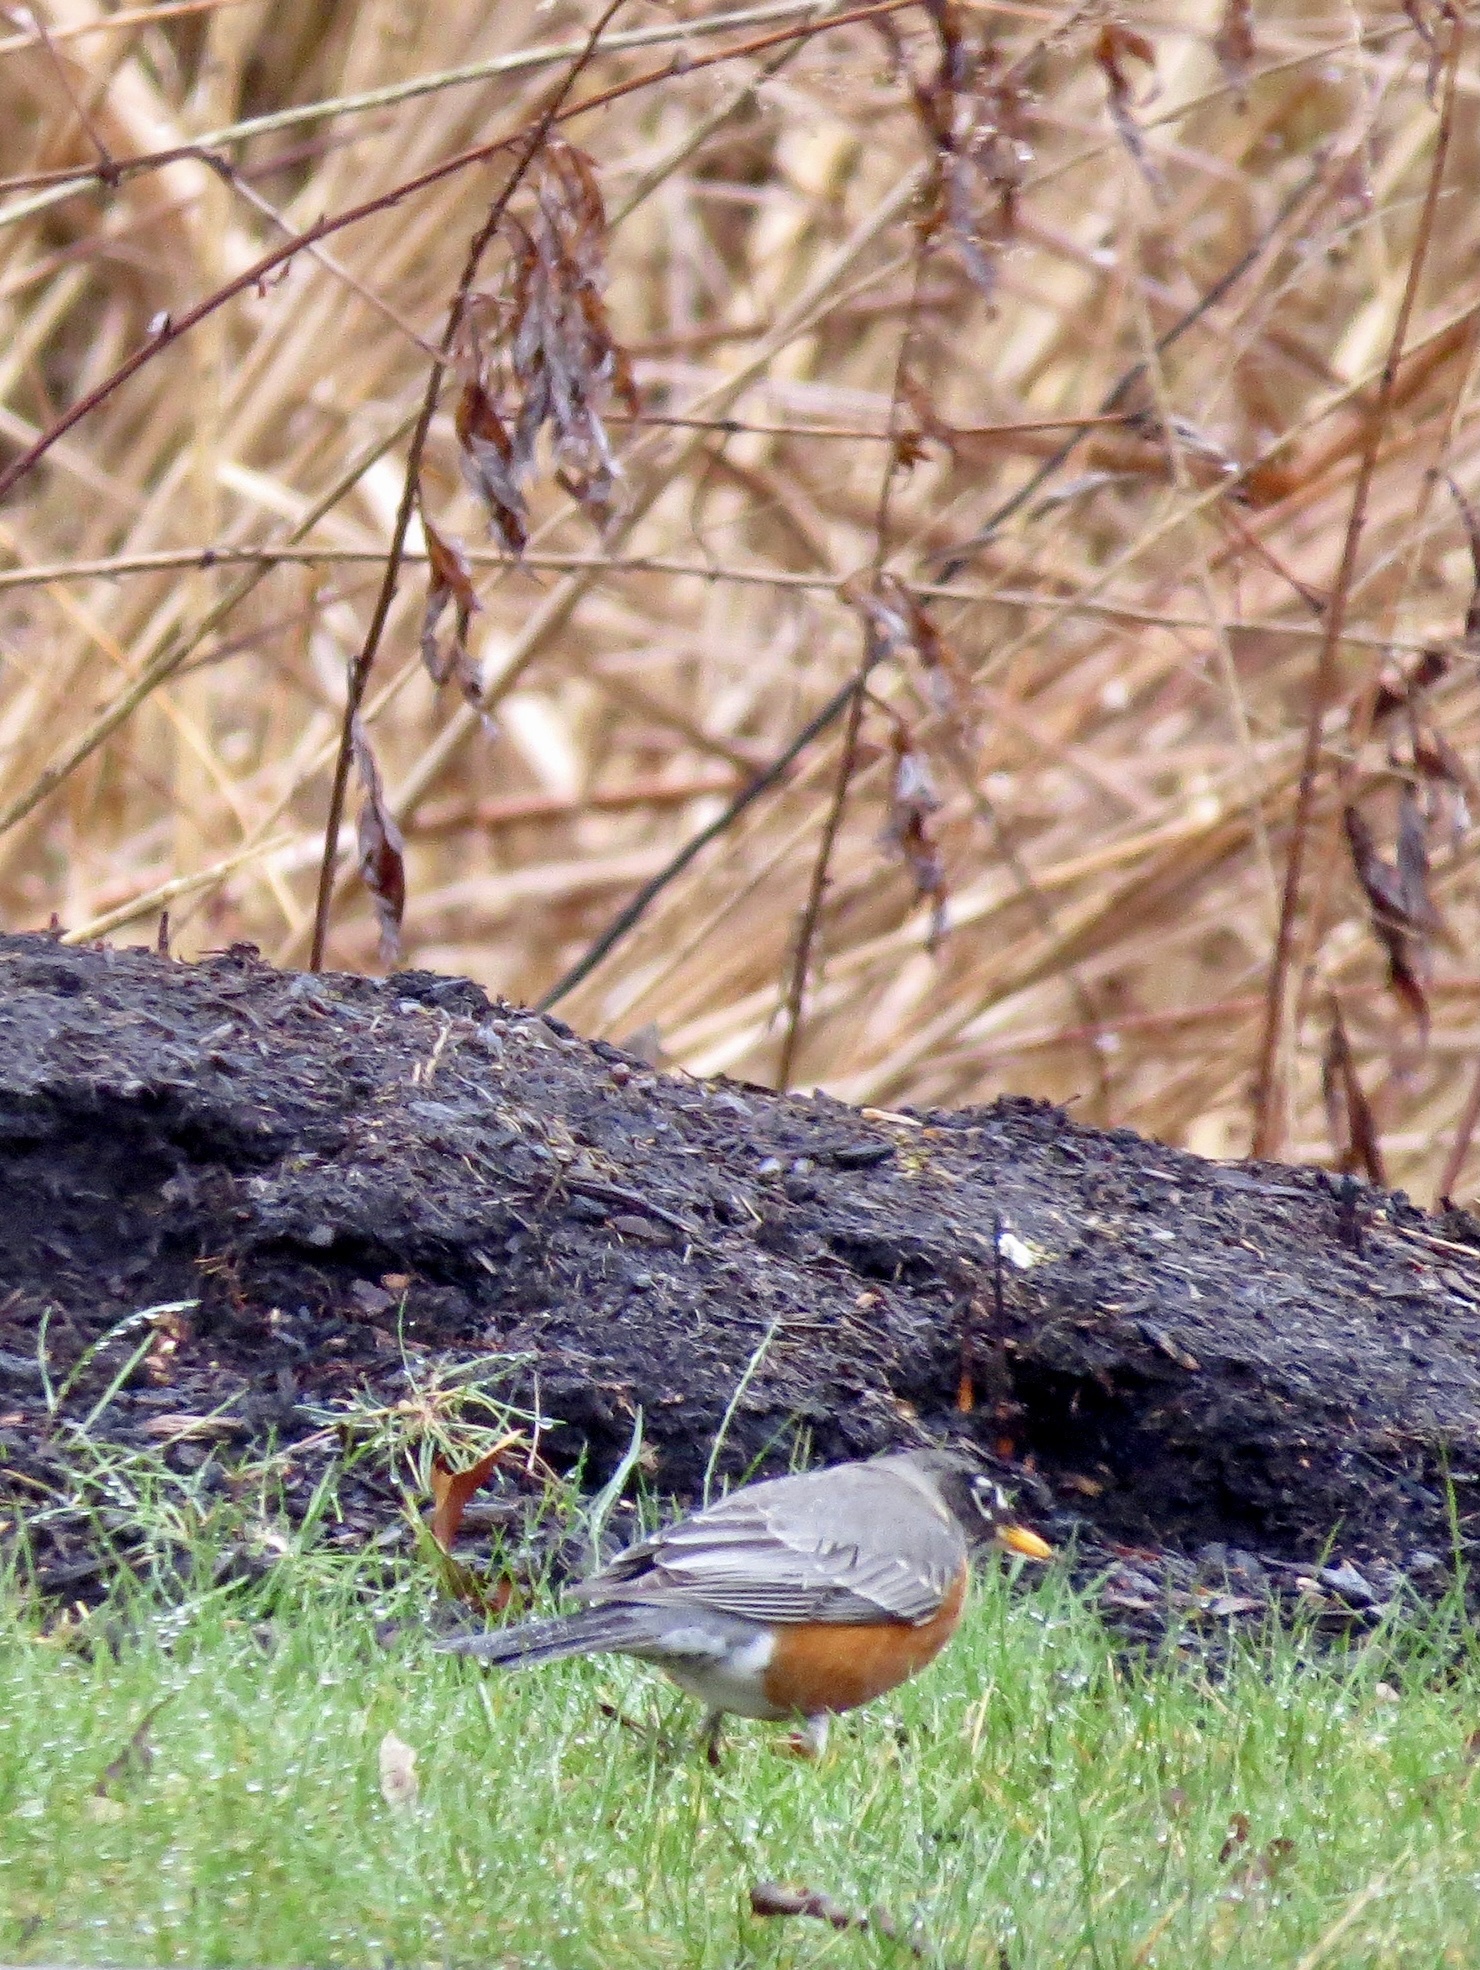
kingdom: Animalia
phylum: Chordata
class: Aves
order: Passeriformes
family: Turdidae
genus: Turdus
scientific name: Turdus migratorius
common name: American robin
